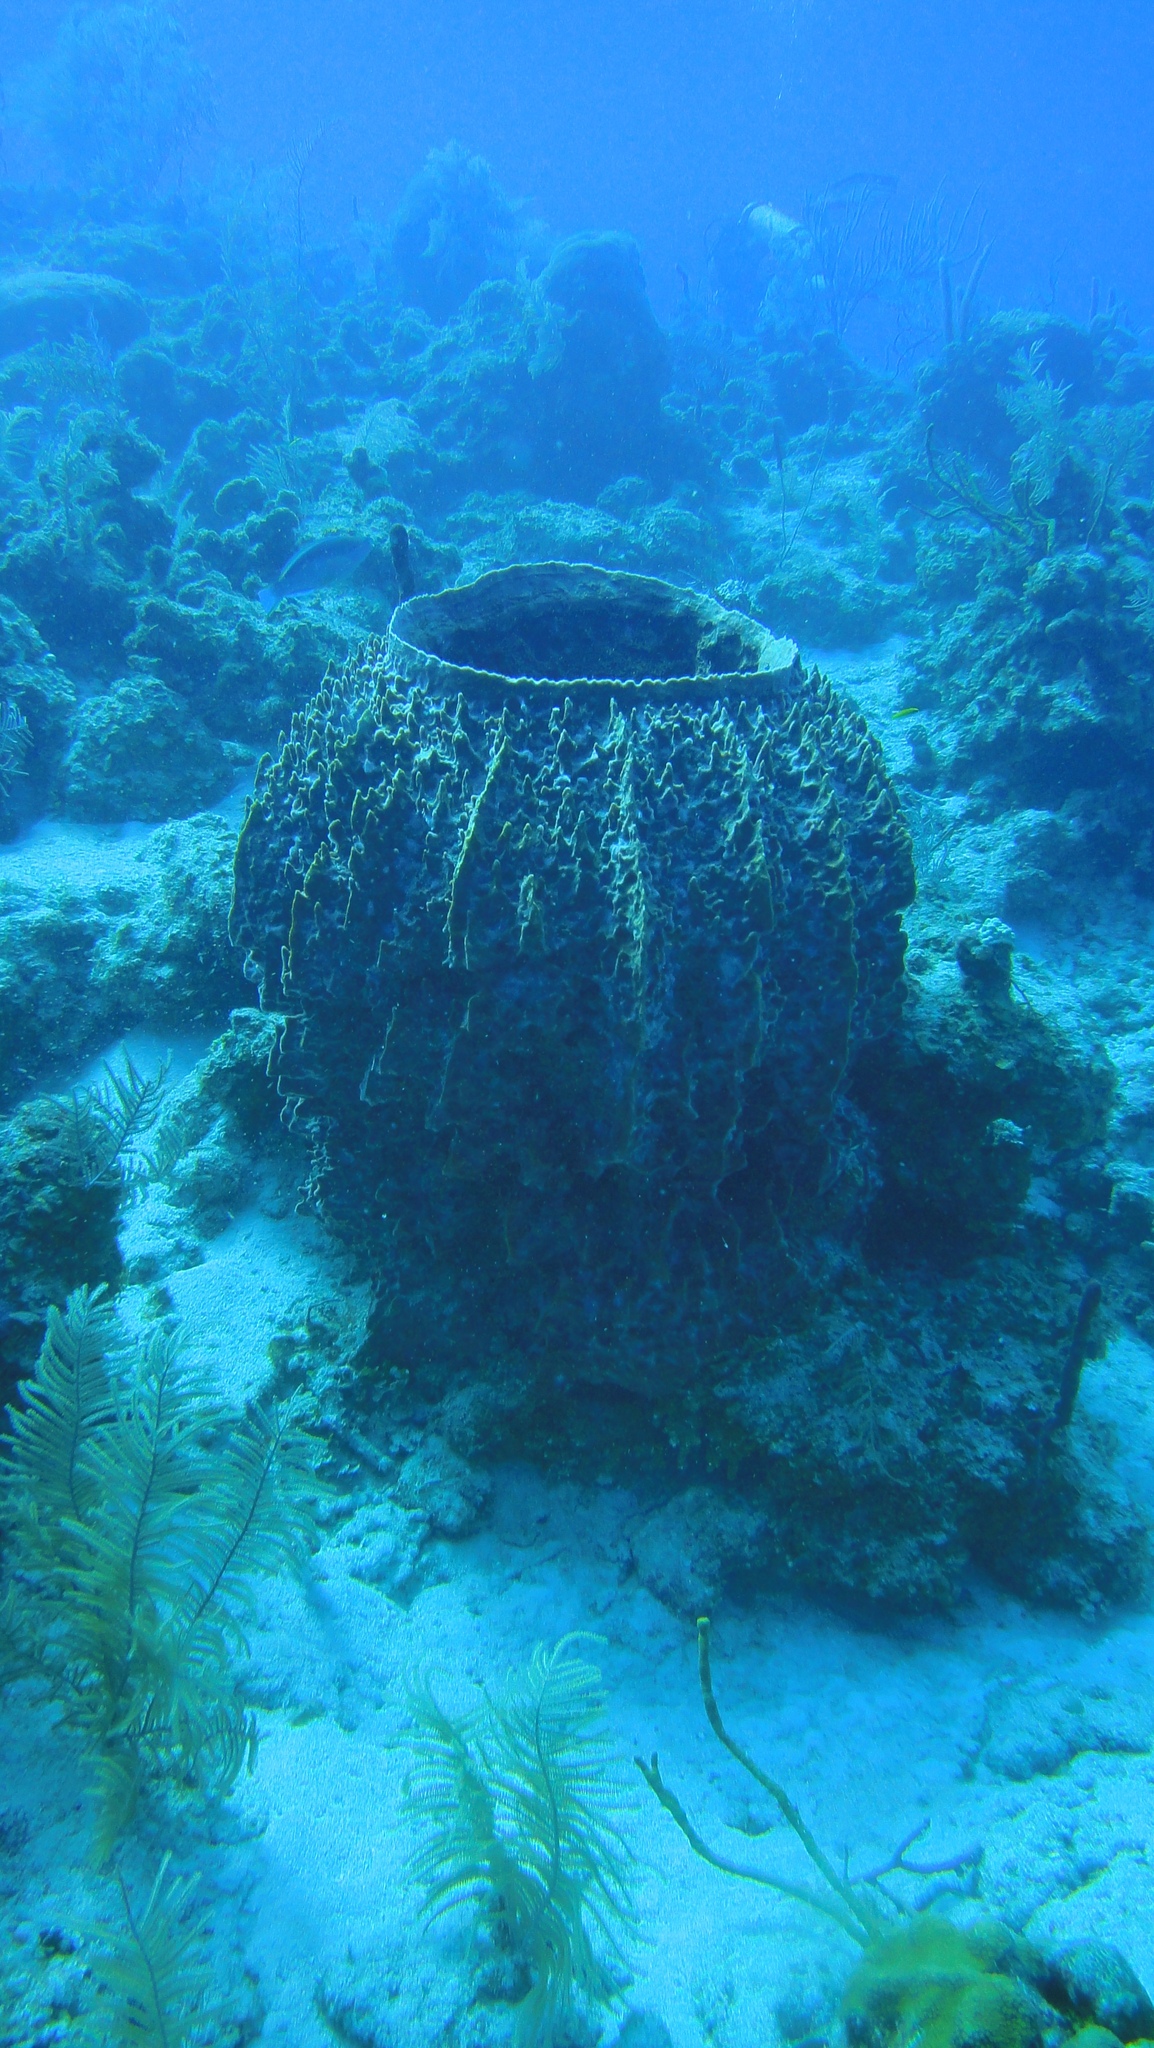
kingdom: Animalia
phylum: Porifera
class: Demospongiae
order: Haplosclerida
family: Petrosiidae
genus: Xestospongia
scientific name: Xestospongia muta
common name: Giant barrel sponge
